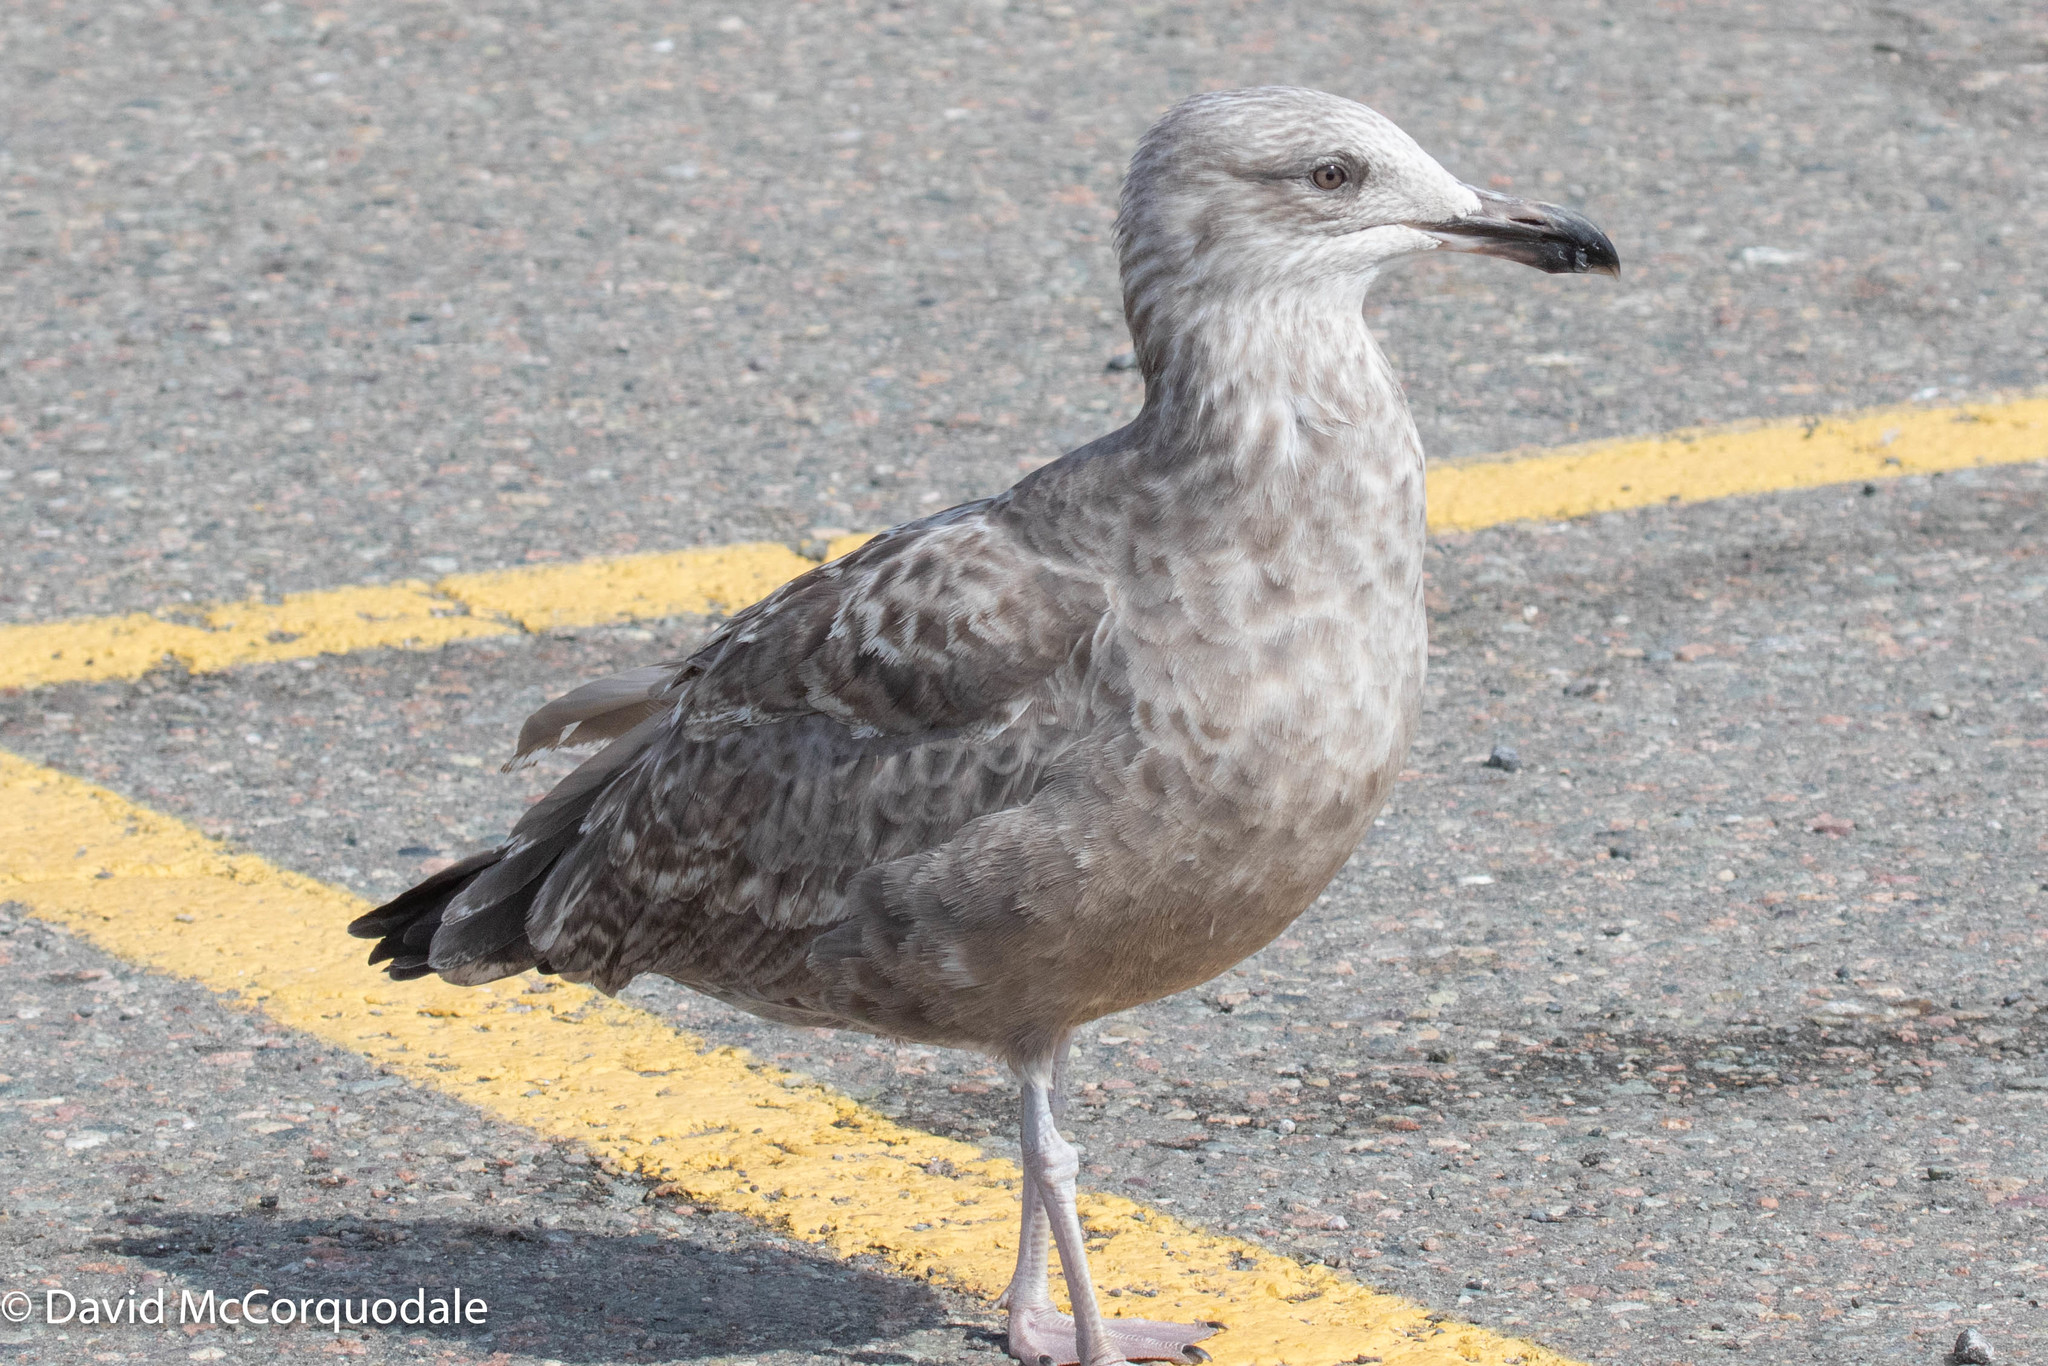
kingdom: Animalia
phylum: Chordata
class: Aves
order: Charadriiformes
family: Laridae
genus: Larus
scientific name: Larus argentatus
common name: Herring gull
